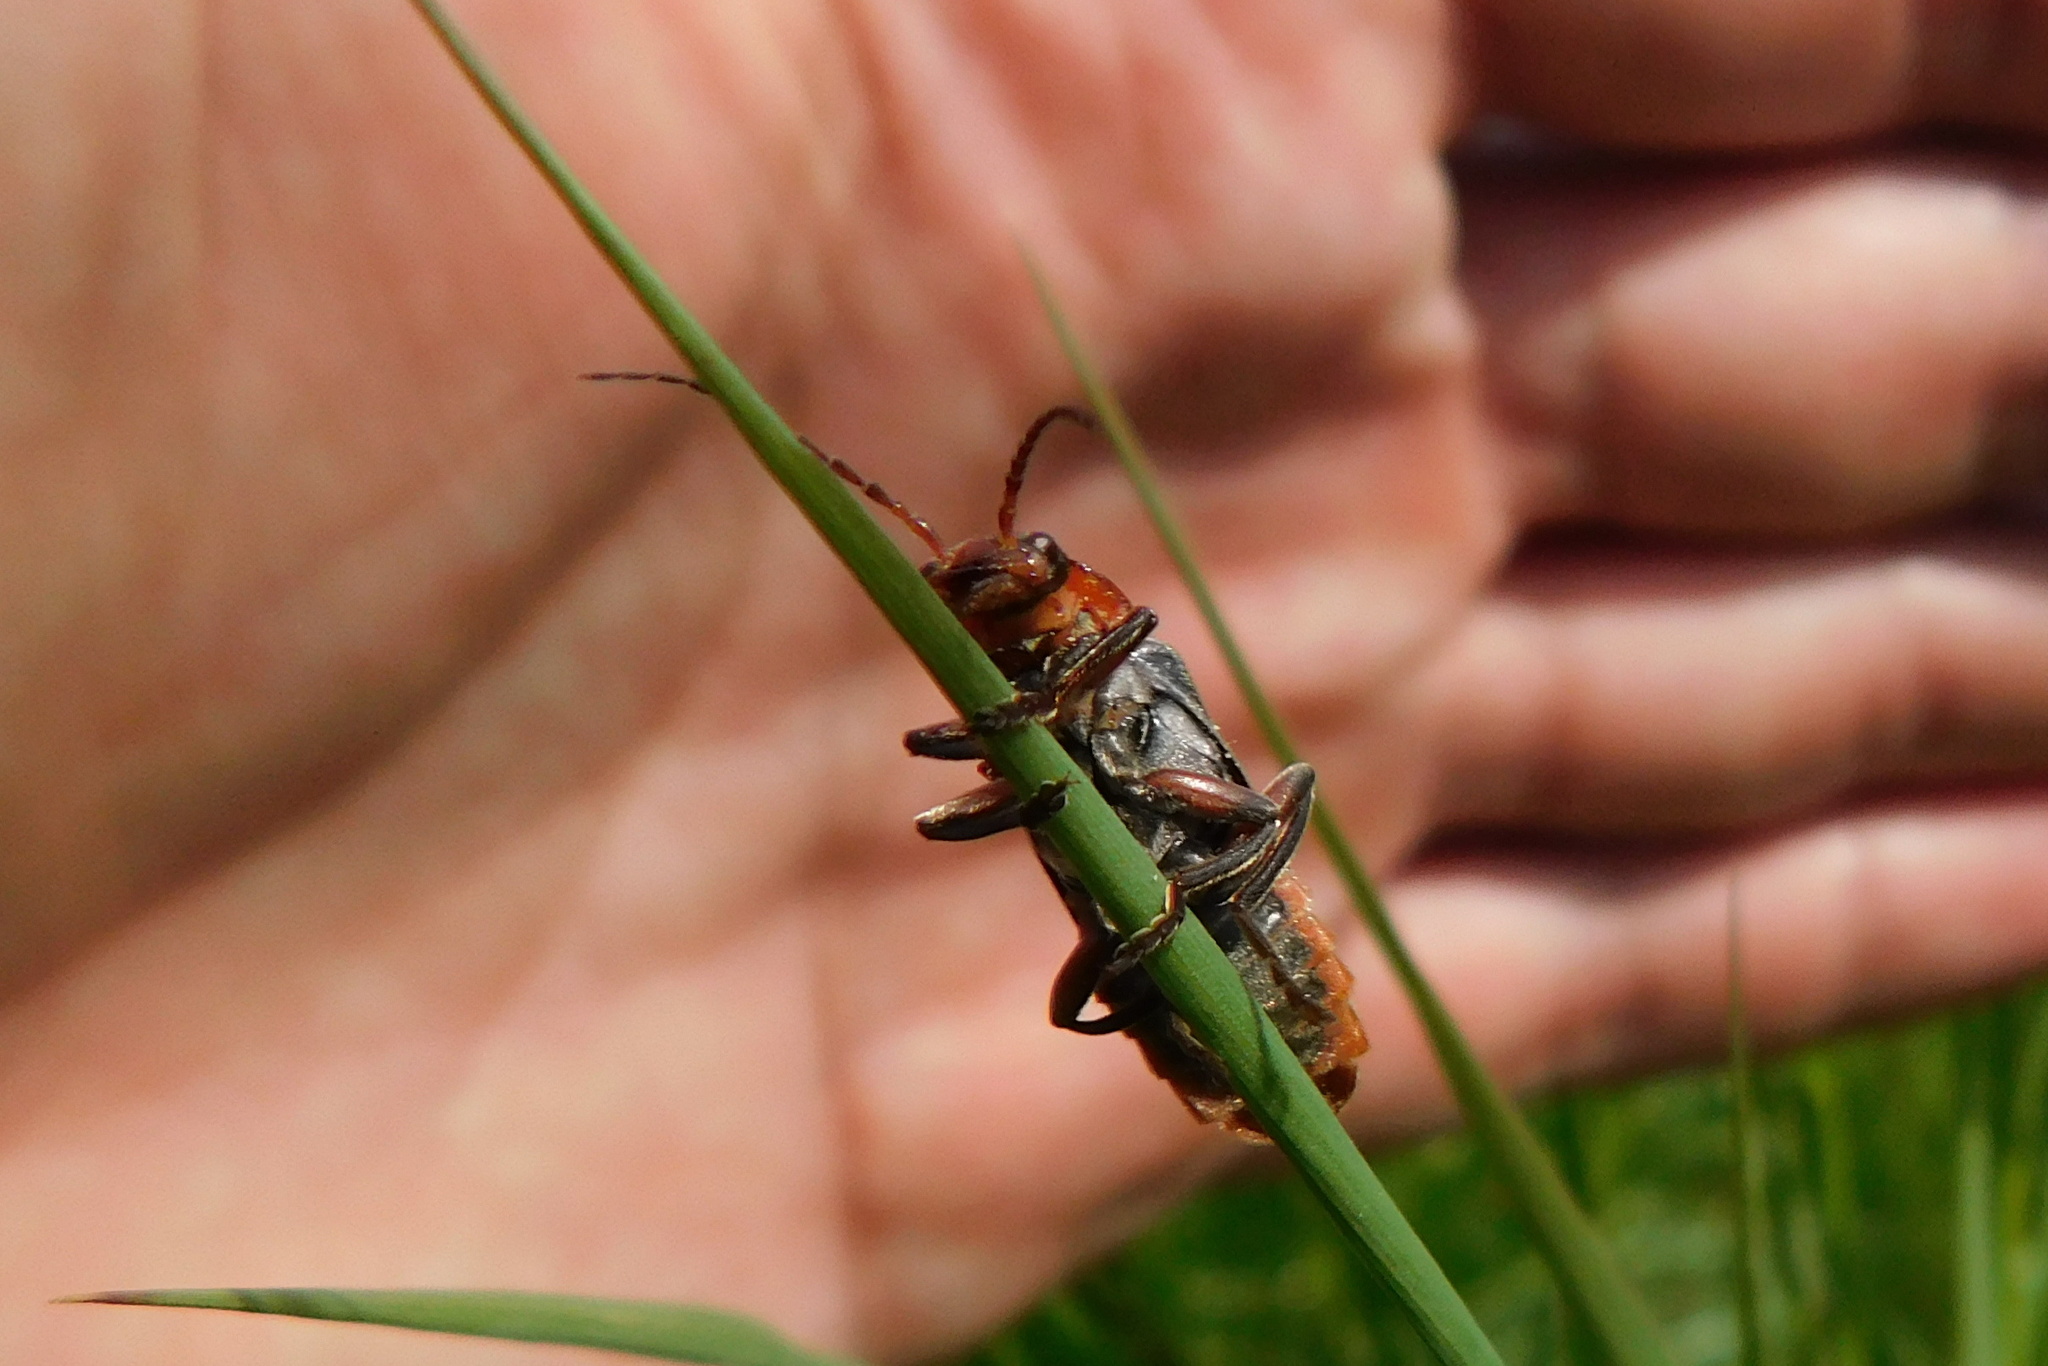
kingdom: Animalia
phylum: Arthropoda
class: Insecta
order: Coleoptera
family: Cantharidae
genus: Cantharis
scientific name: Cantharis rustica
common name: Soldier beetle
